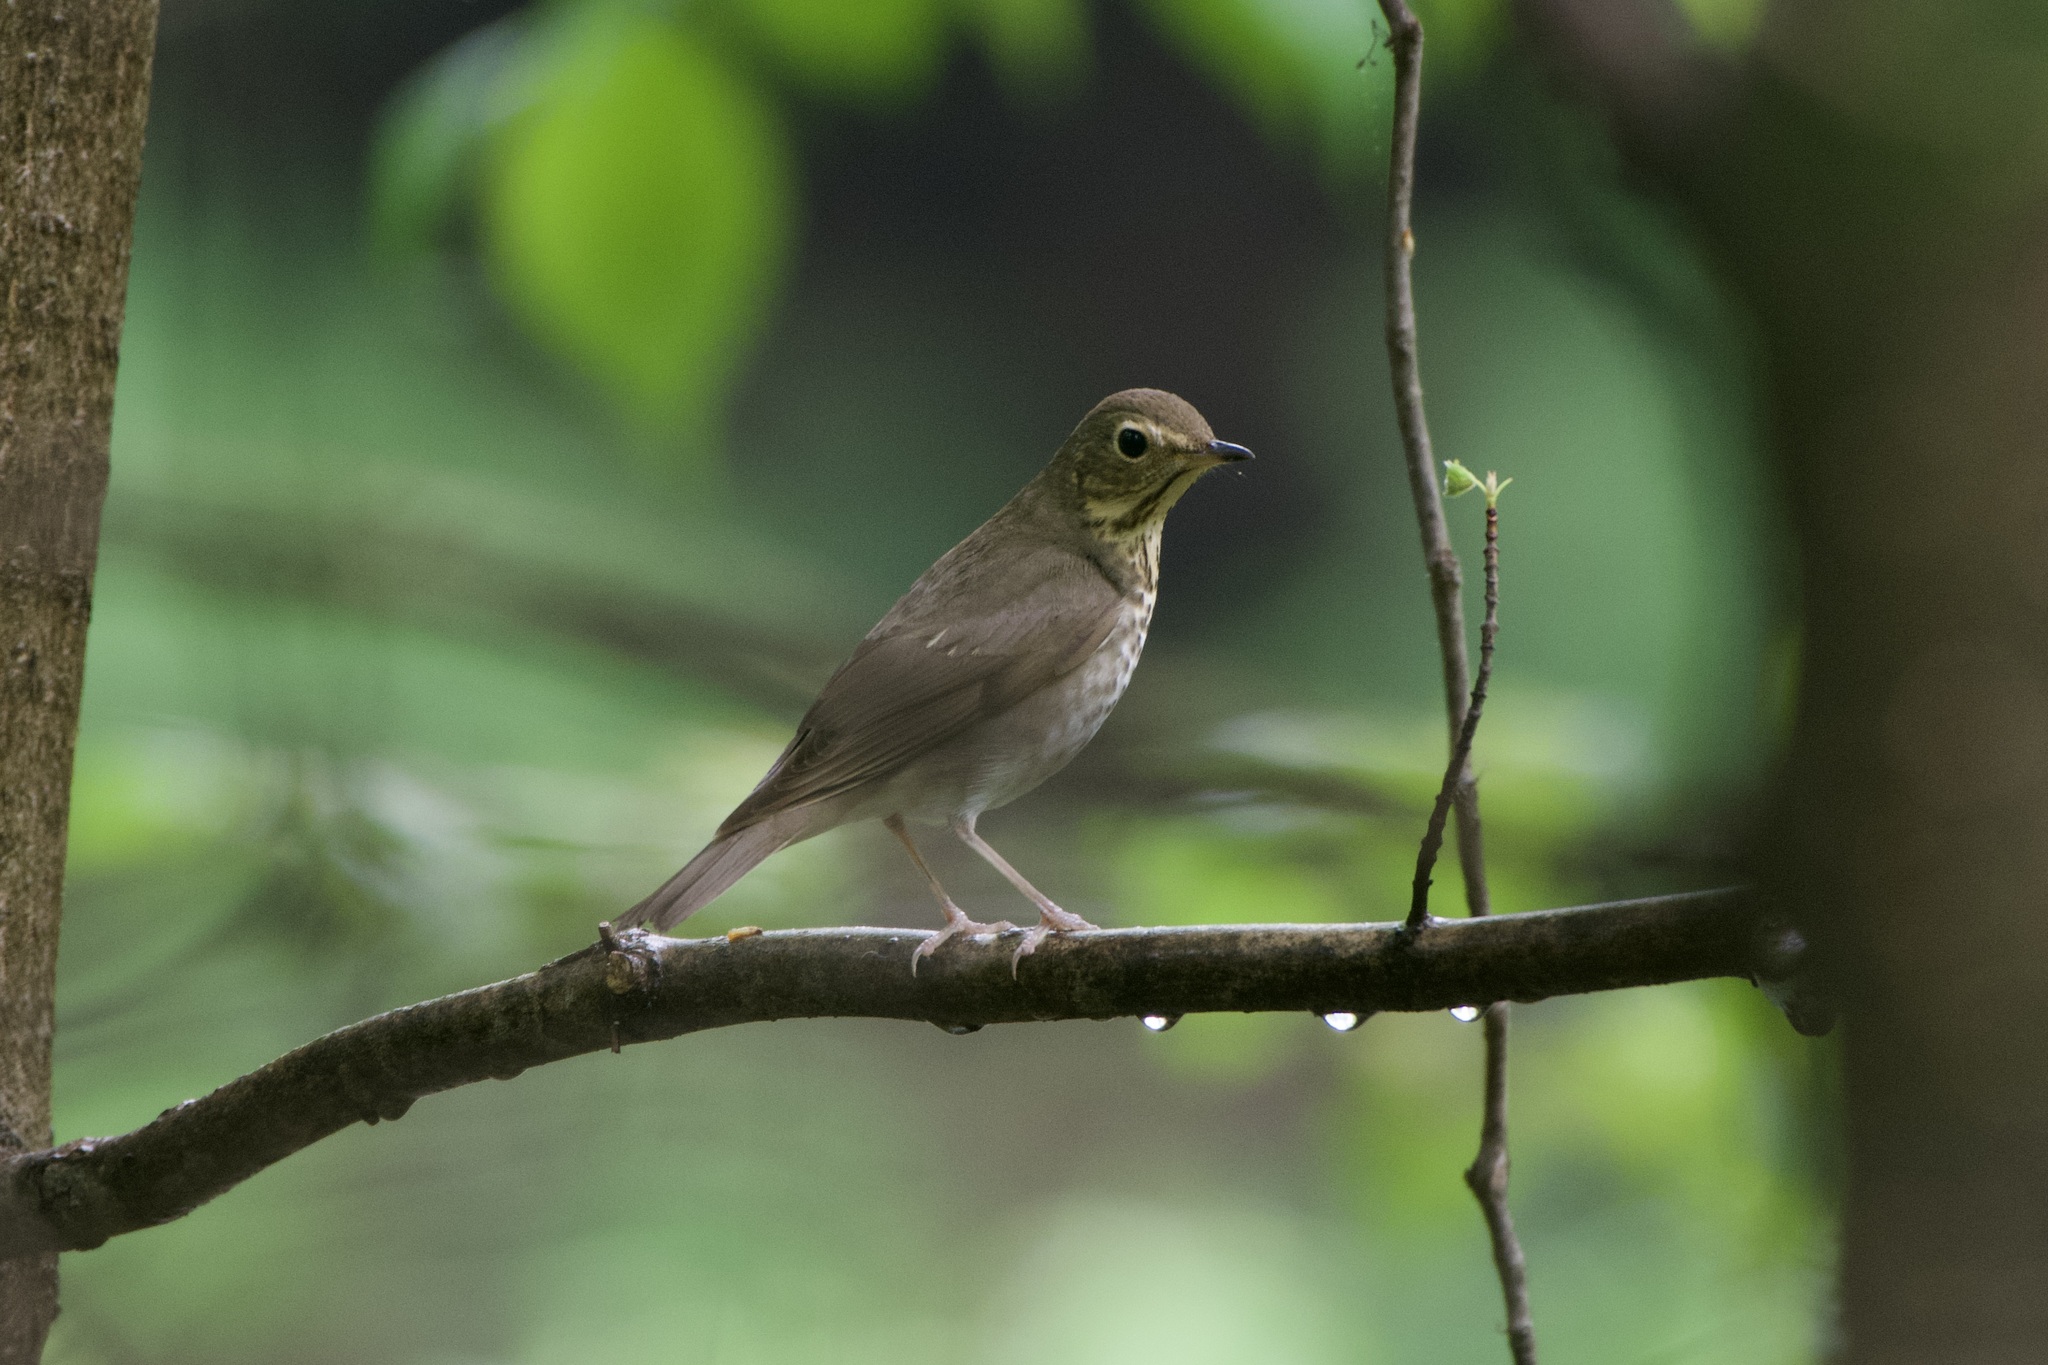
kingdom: Animalia
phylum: Chordata
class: Aves
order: Passeriformes
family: Turdidae
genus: Catharus
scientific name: Catharus ustulatus
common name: Swainson's thrush
